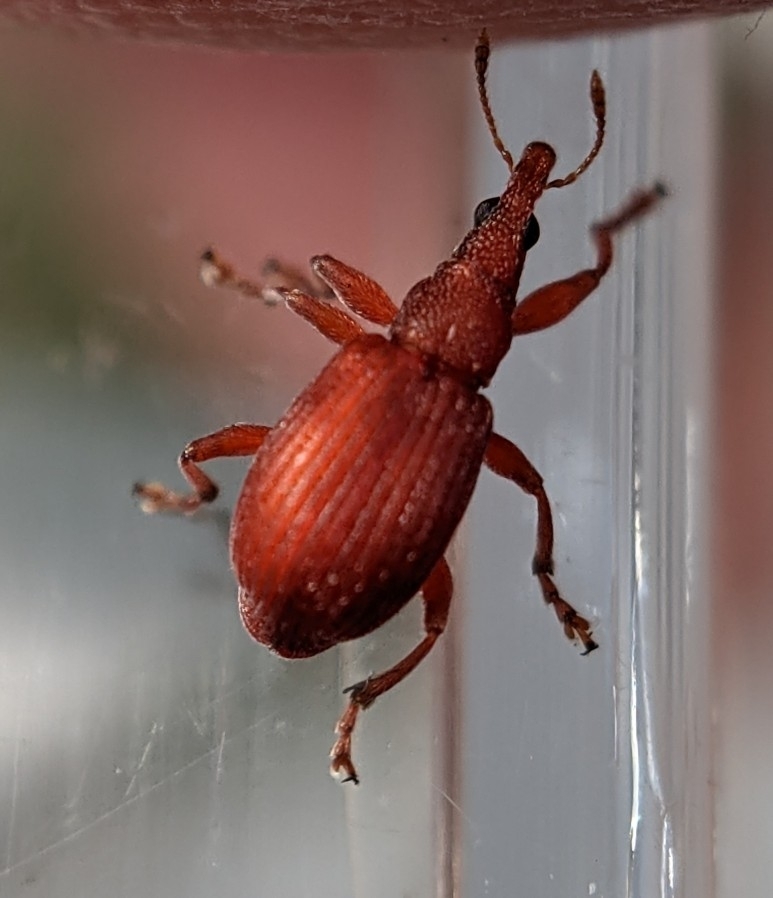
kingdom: Animalia
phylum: Arthropoda
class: Insecta
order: Coleoptera
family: Apionidae
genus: Apion
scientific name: Apion frumentarium
